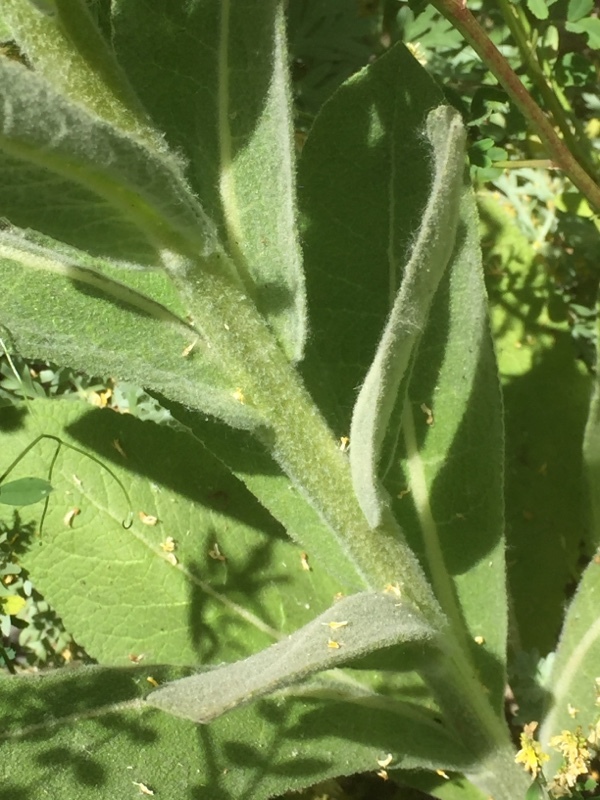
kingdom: Plantae
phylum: Tracheophyta
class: Magnoliopsida
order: Lamiales
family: Scrophulariaceae
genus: Verbascum
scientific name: Verbascum phlomoides
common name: Orange mullein
